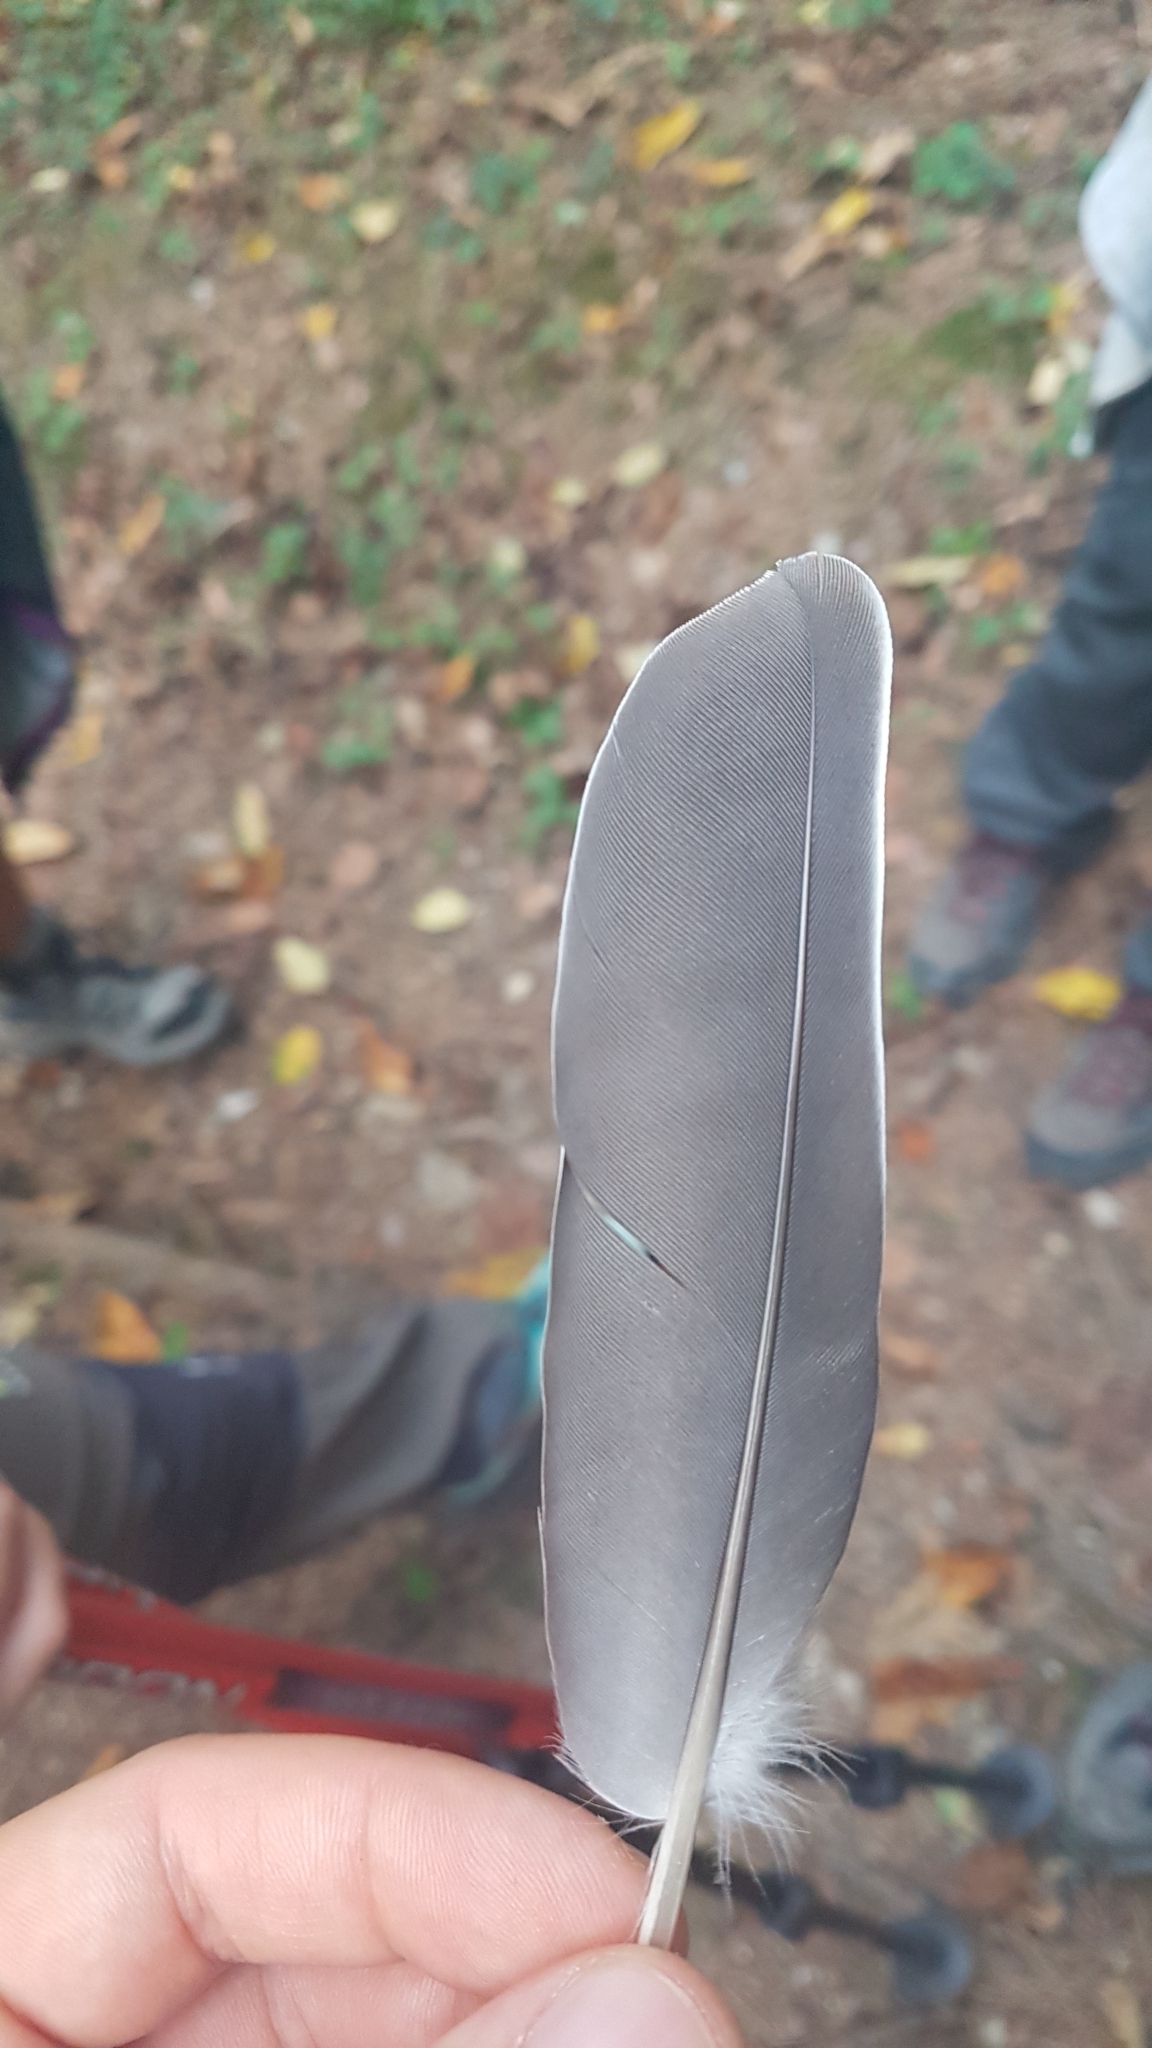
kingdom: Animalia
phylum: Chordata
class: Aves
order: Columbiformes
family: Columbidae
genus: Columba
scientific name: Columba palumbus
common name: Common wood pigeon
